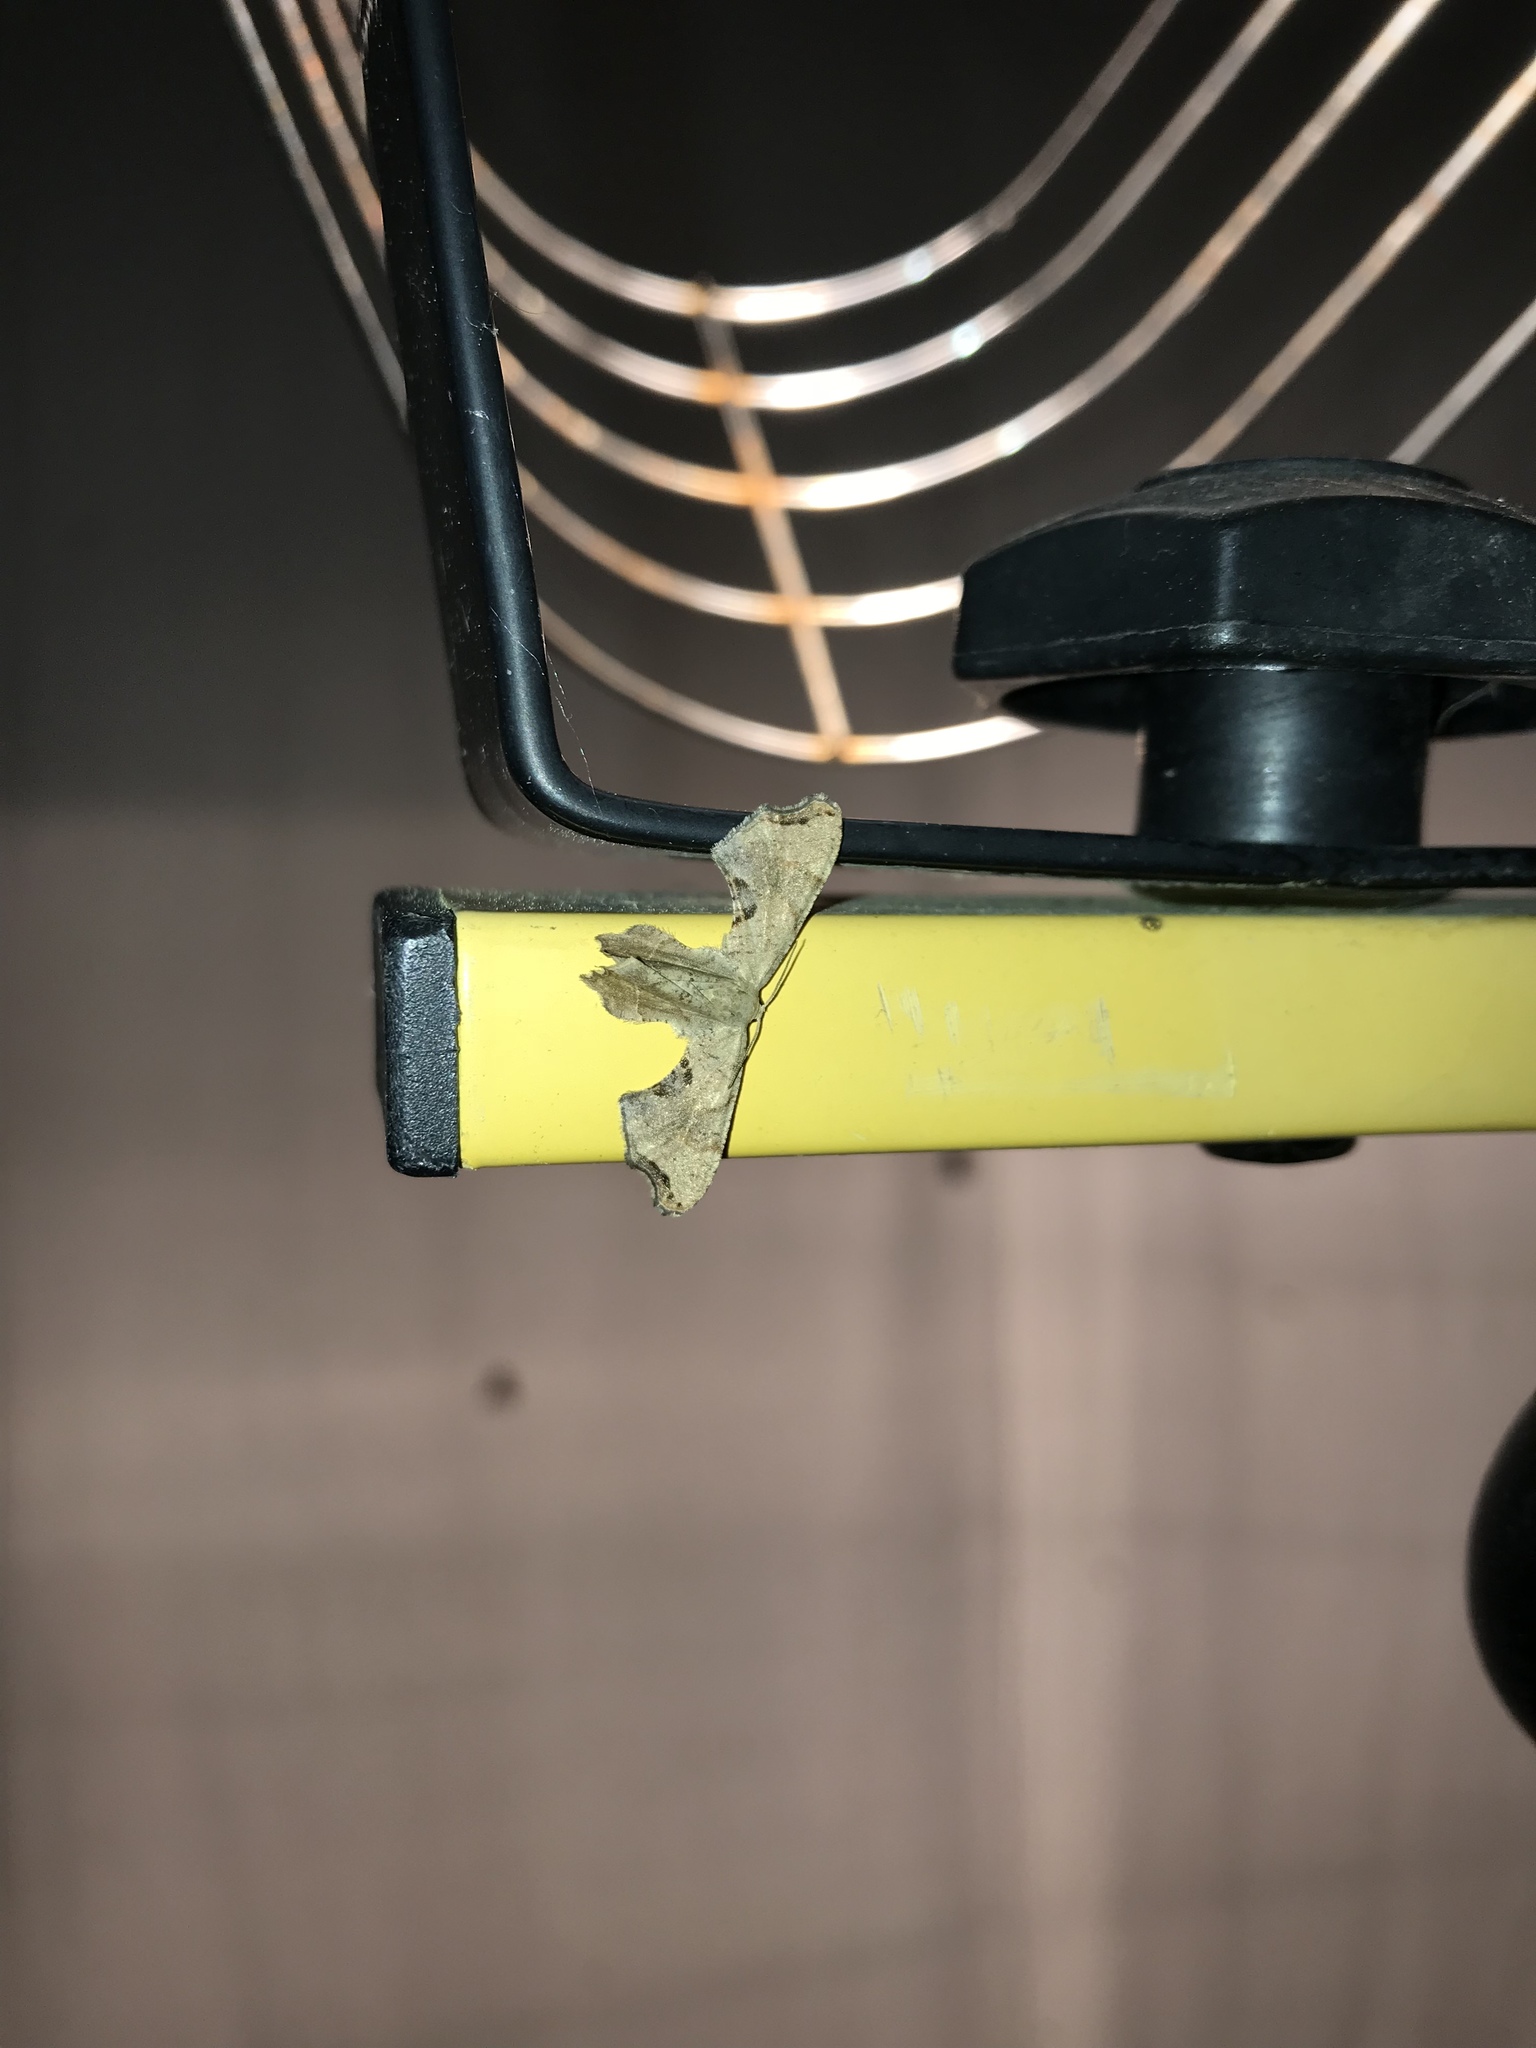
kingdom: Animalia
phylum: Arthropoda
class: Insecta
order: Lepidoptera
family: Uraniidae
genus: Epiplema
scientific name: Epiplema Calledapteryx dryopterata
